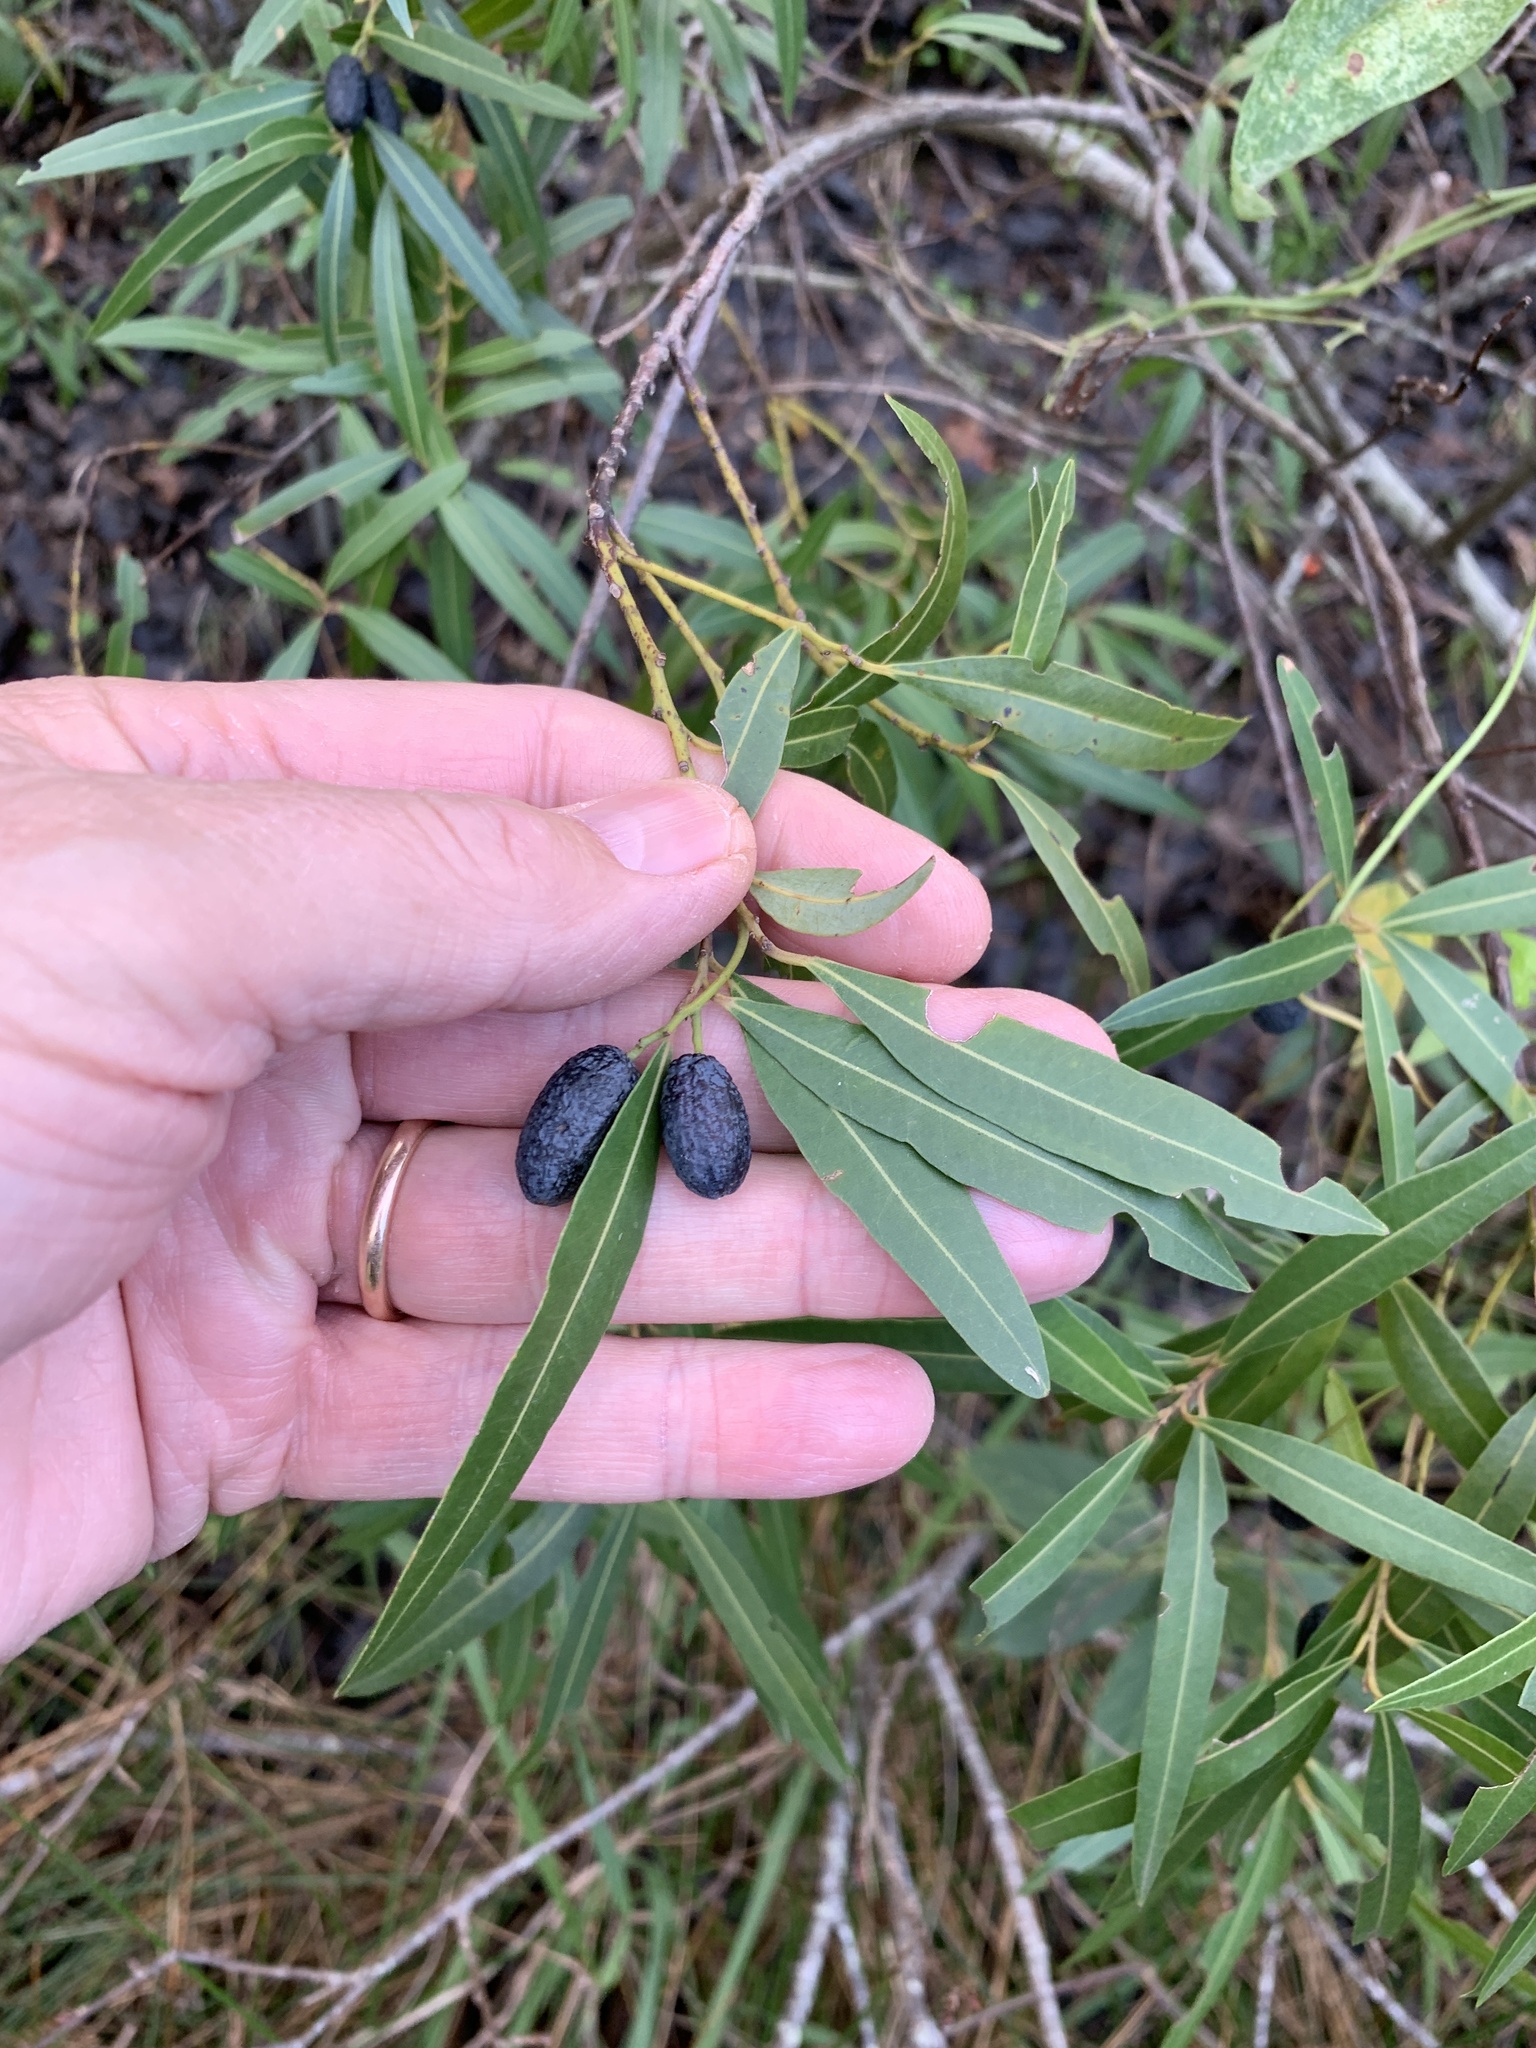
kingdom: Plantae
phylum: Tracheophyta
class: Magnoliopsida
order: Laurales
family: Lauraceae
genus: Cryptocarya
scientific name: Cryptocarya angustifolia
